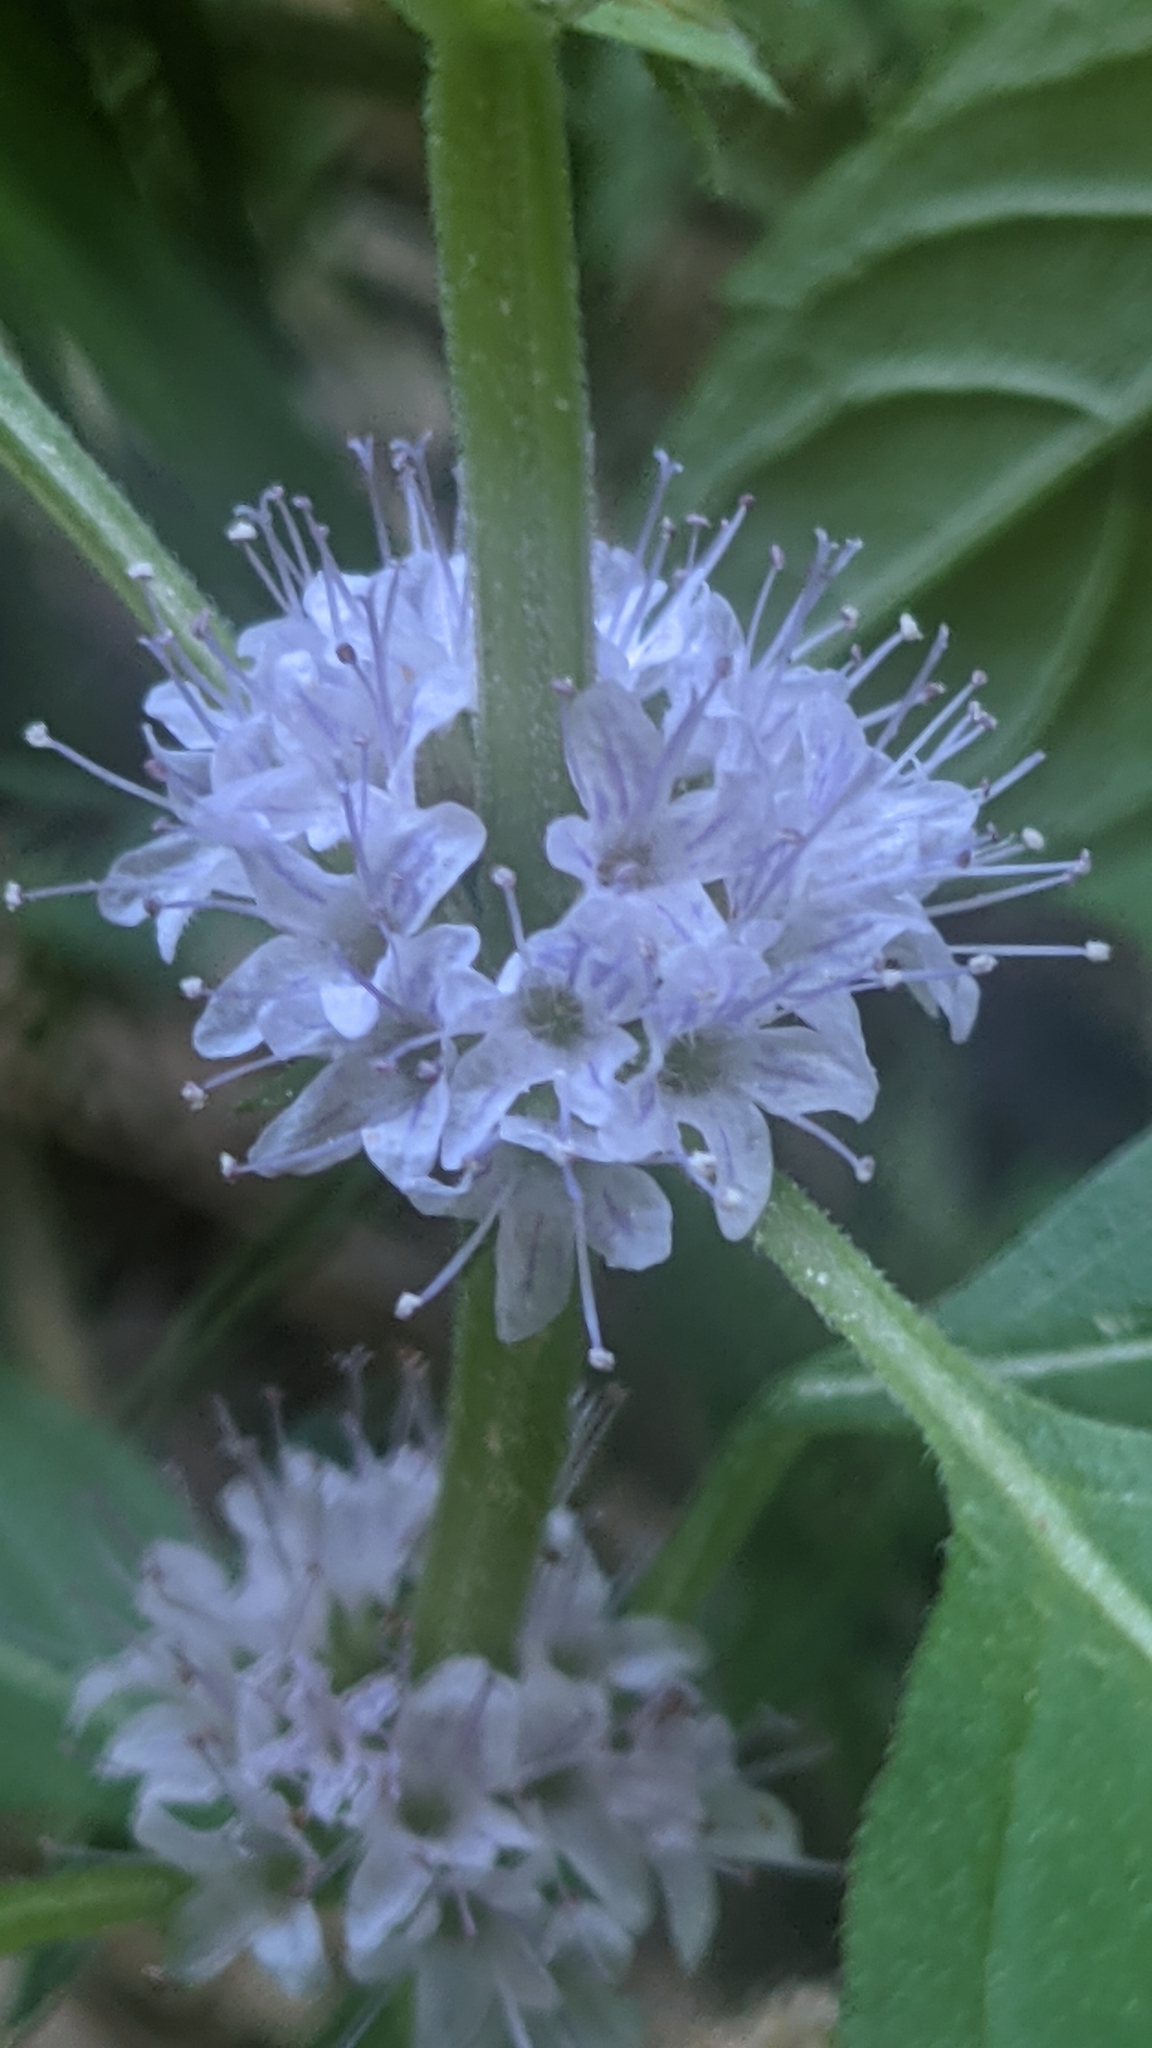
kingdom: Plantae
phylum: Tracheophyta
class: Magnoliopsida
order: Lamiales
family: Lamiaceae
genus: Mentha
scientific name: Mentha canadensis
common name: American corn mint
